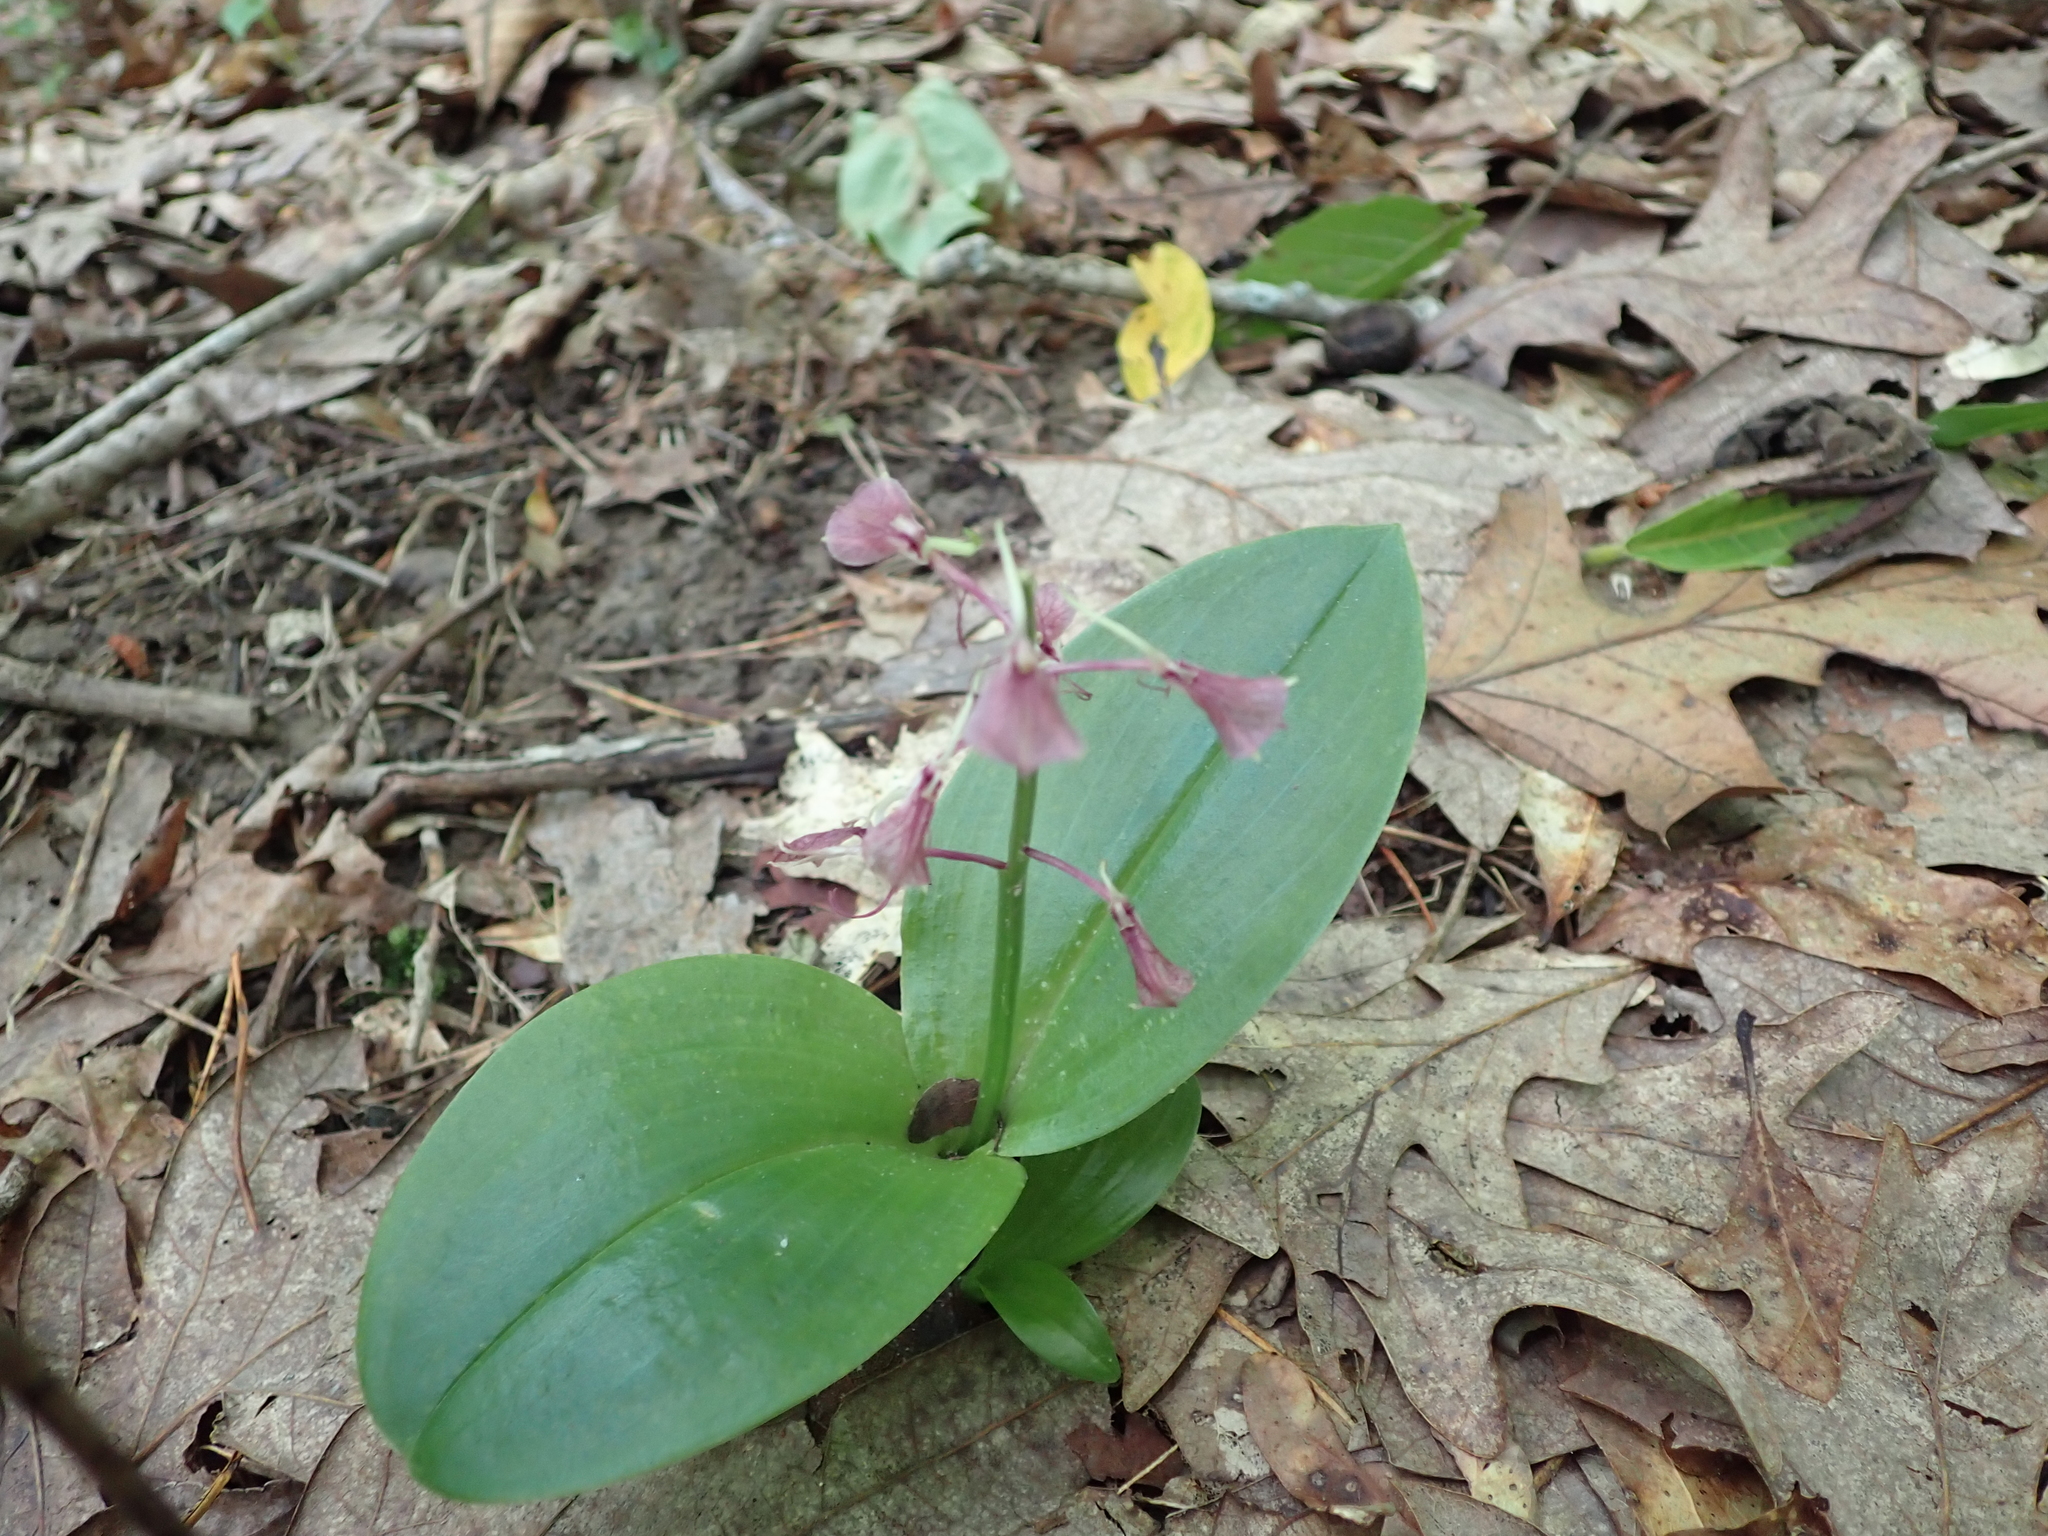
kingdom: Plantae
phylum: Tracheophyta
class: Liliopsida
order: Asparagales
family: Orchidaceae
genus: Liparis
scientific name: Liparis liliifolia
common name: Brown wide-lip orchid
